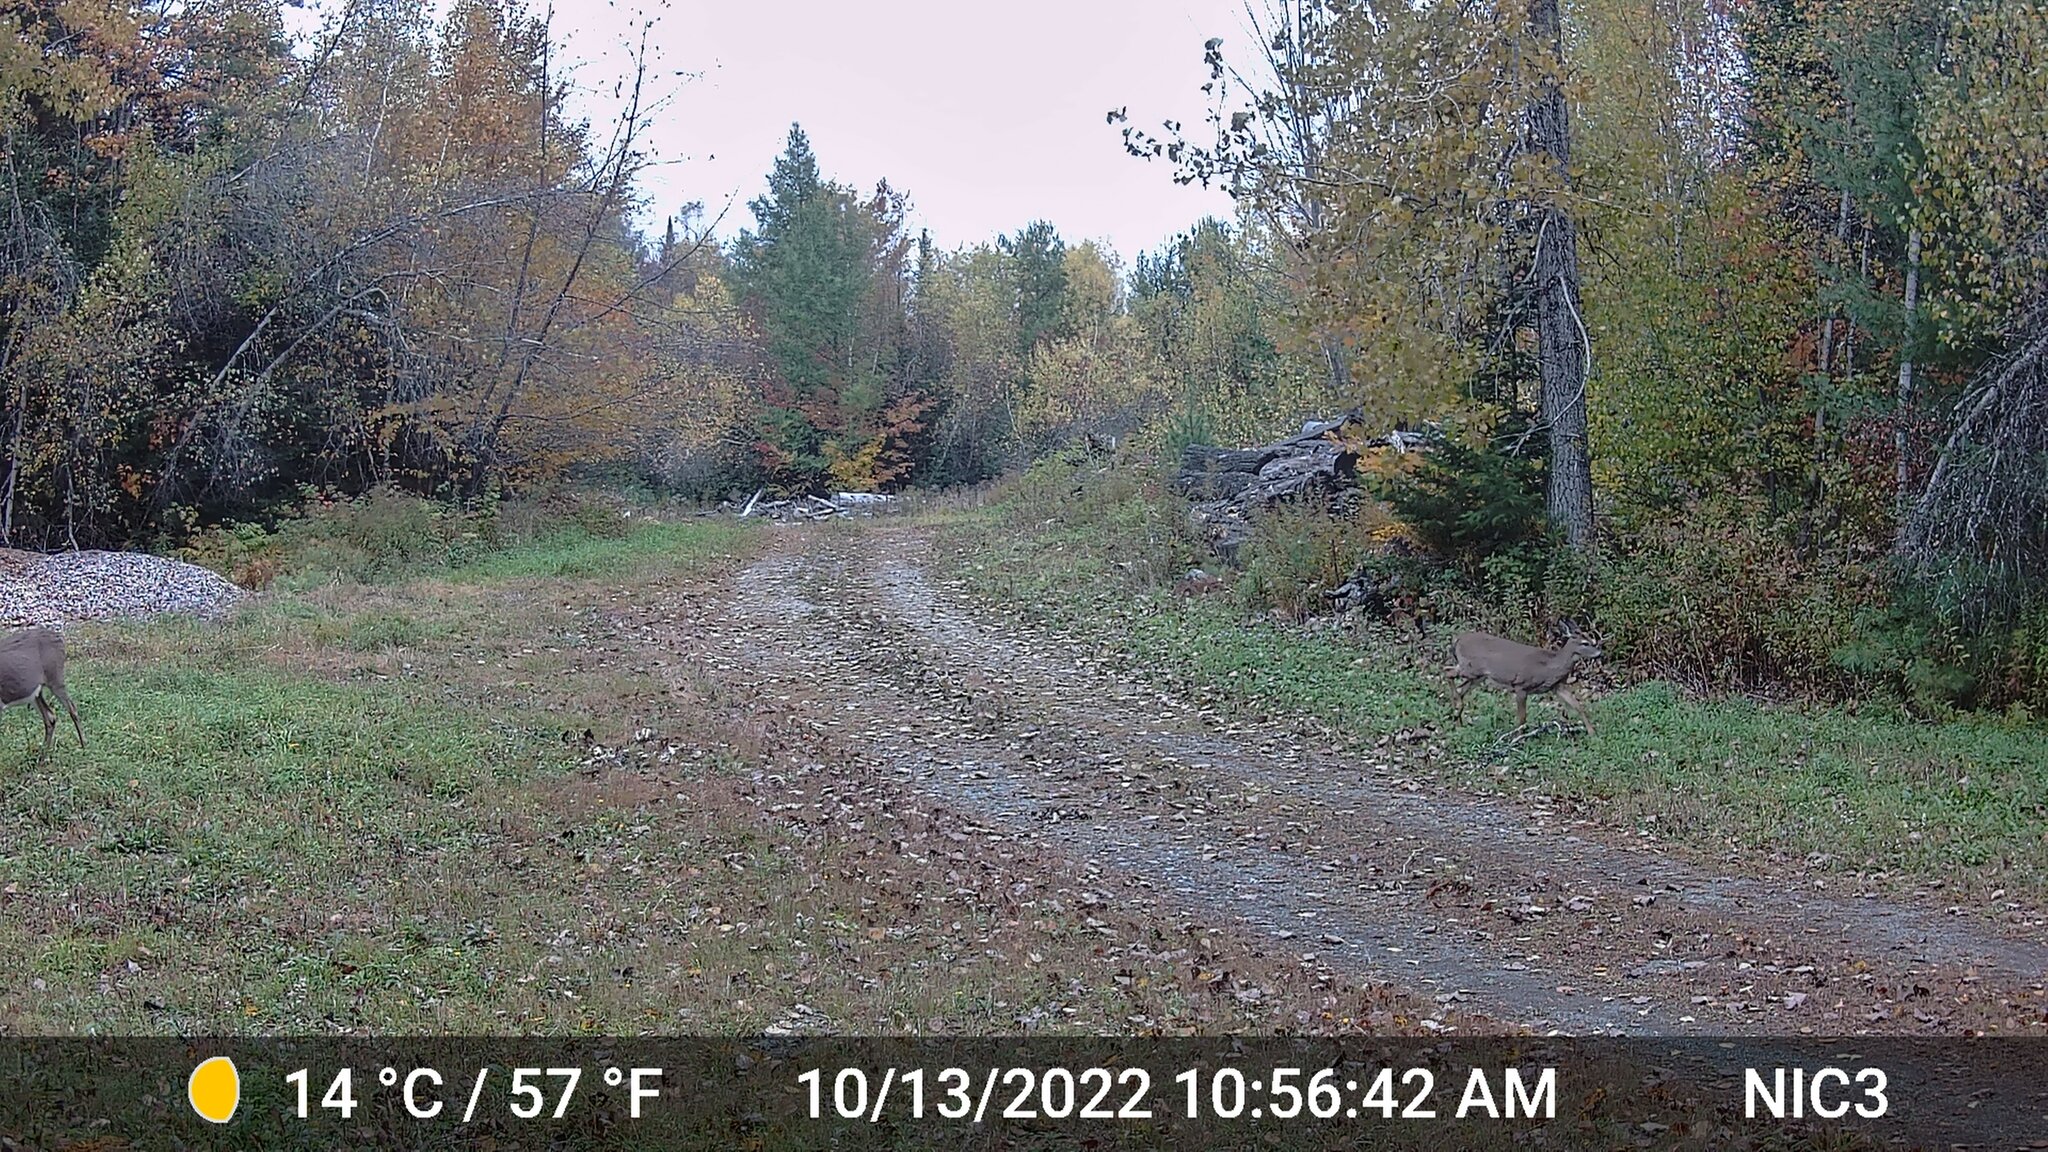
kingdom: Animalia
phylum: Chordata
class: Mammalia
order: Artiodactyla
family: Cervidae
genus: Odocoileus
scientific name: Odocoileus virginianus
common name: White-tailed deer
